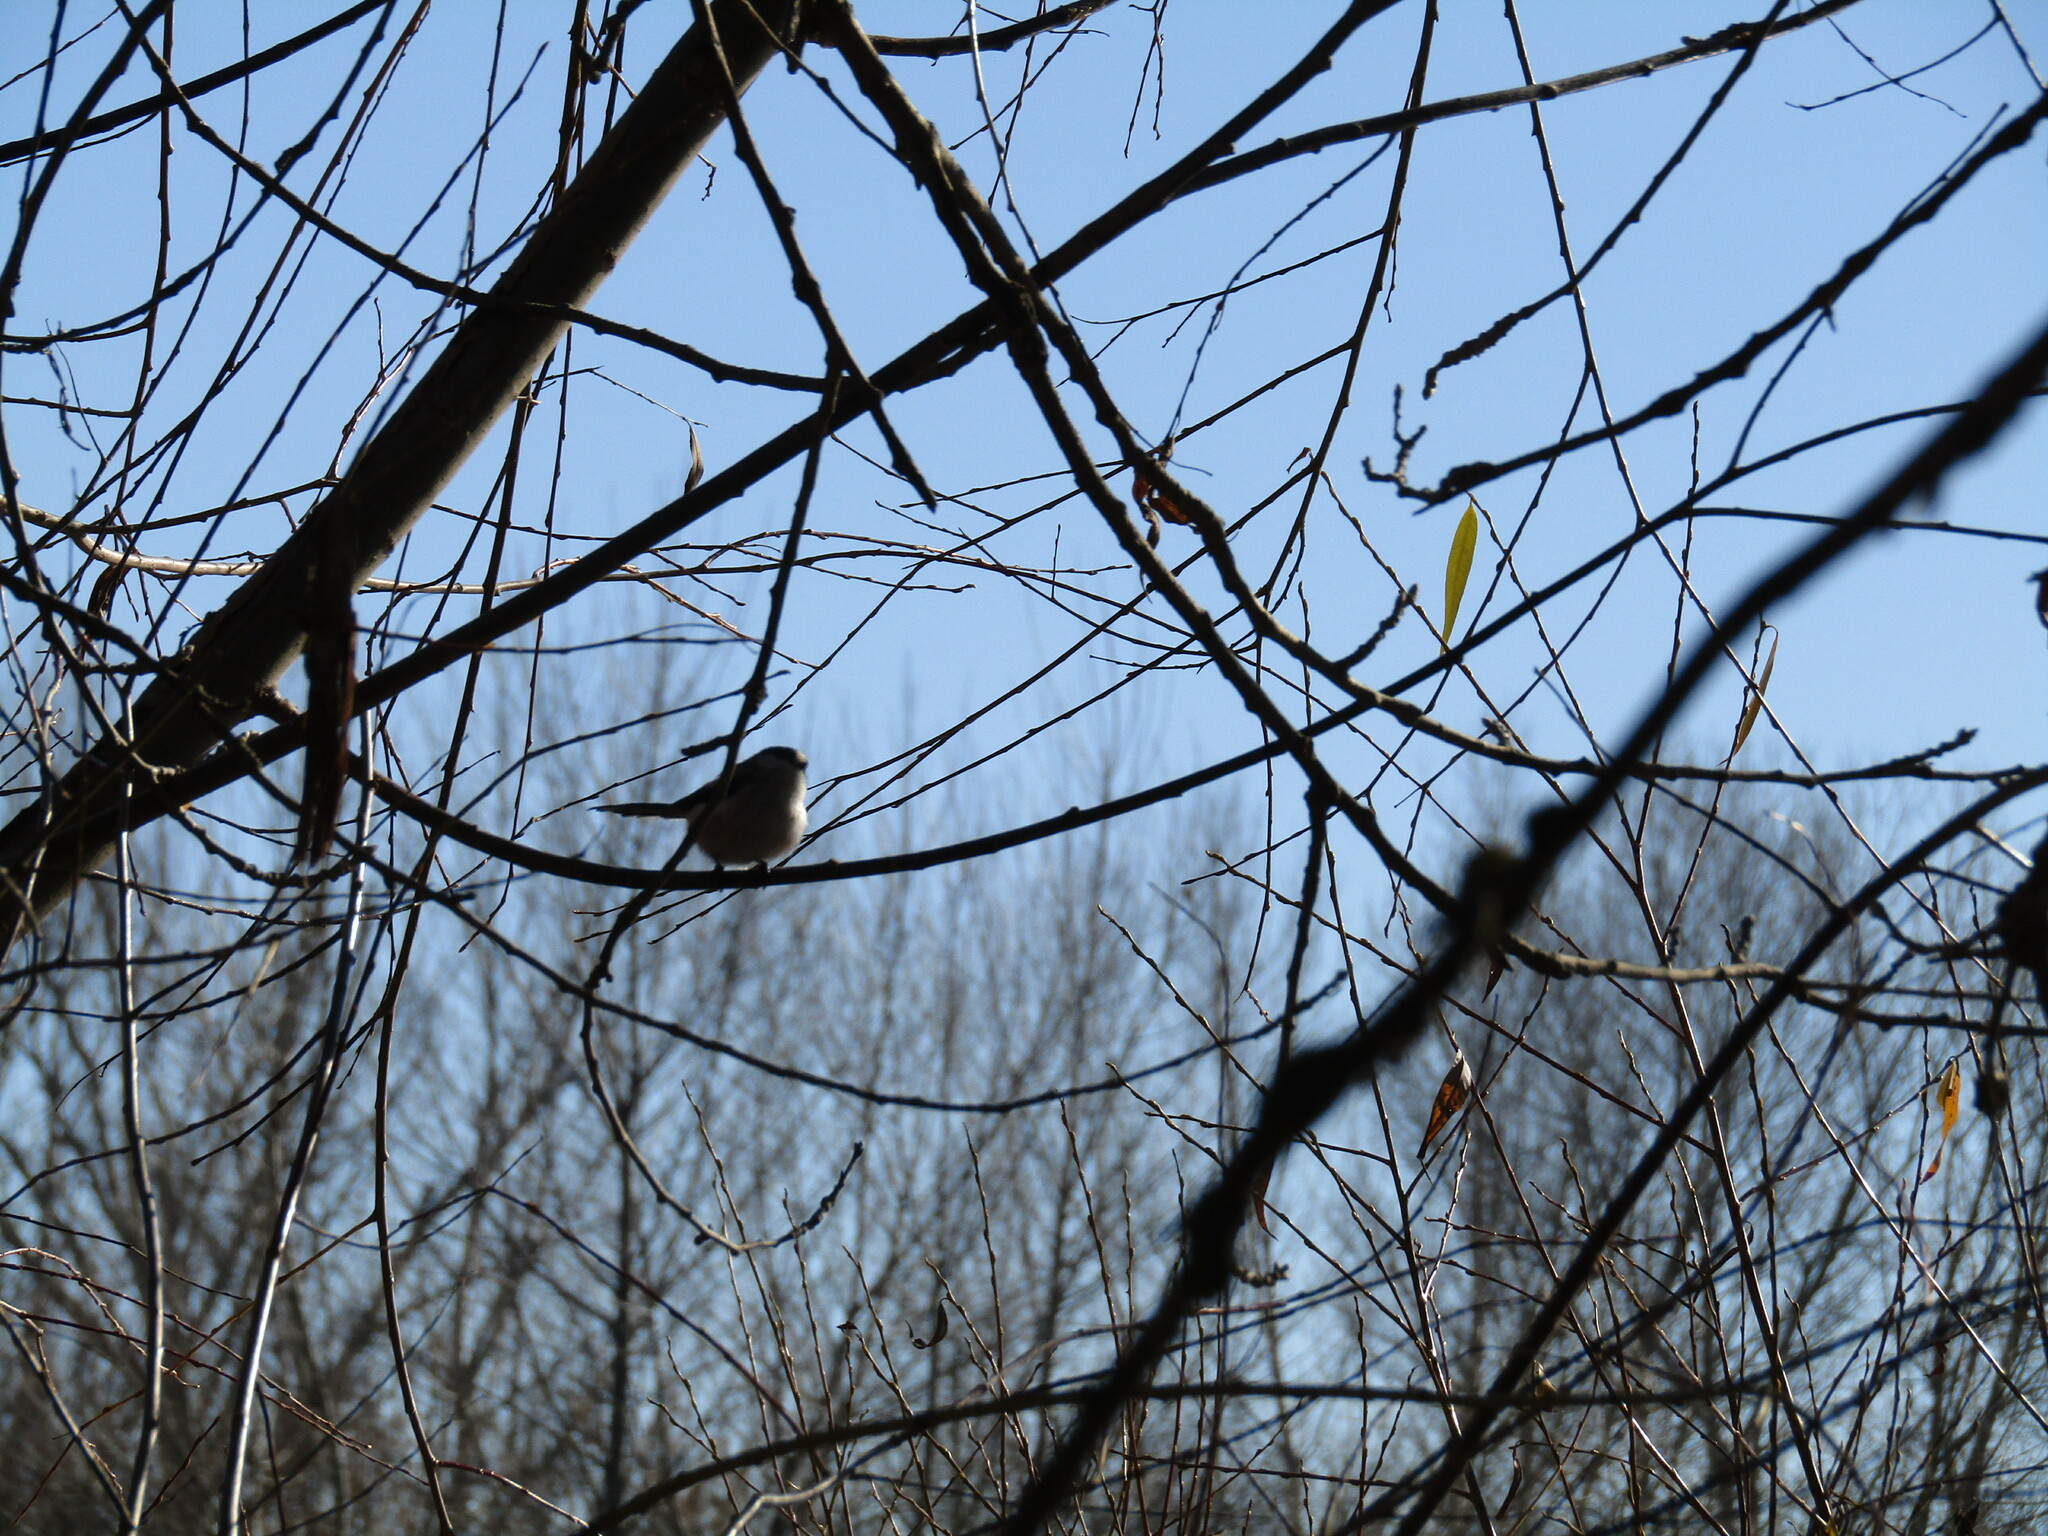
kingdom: Animalia
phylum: Chordata
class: Aves
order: Passeriformes
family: Aegithalidae
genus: Aegithalos
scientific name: Aegithalos caudatus
